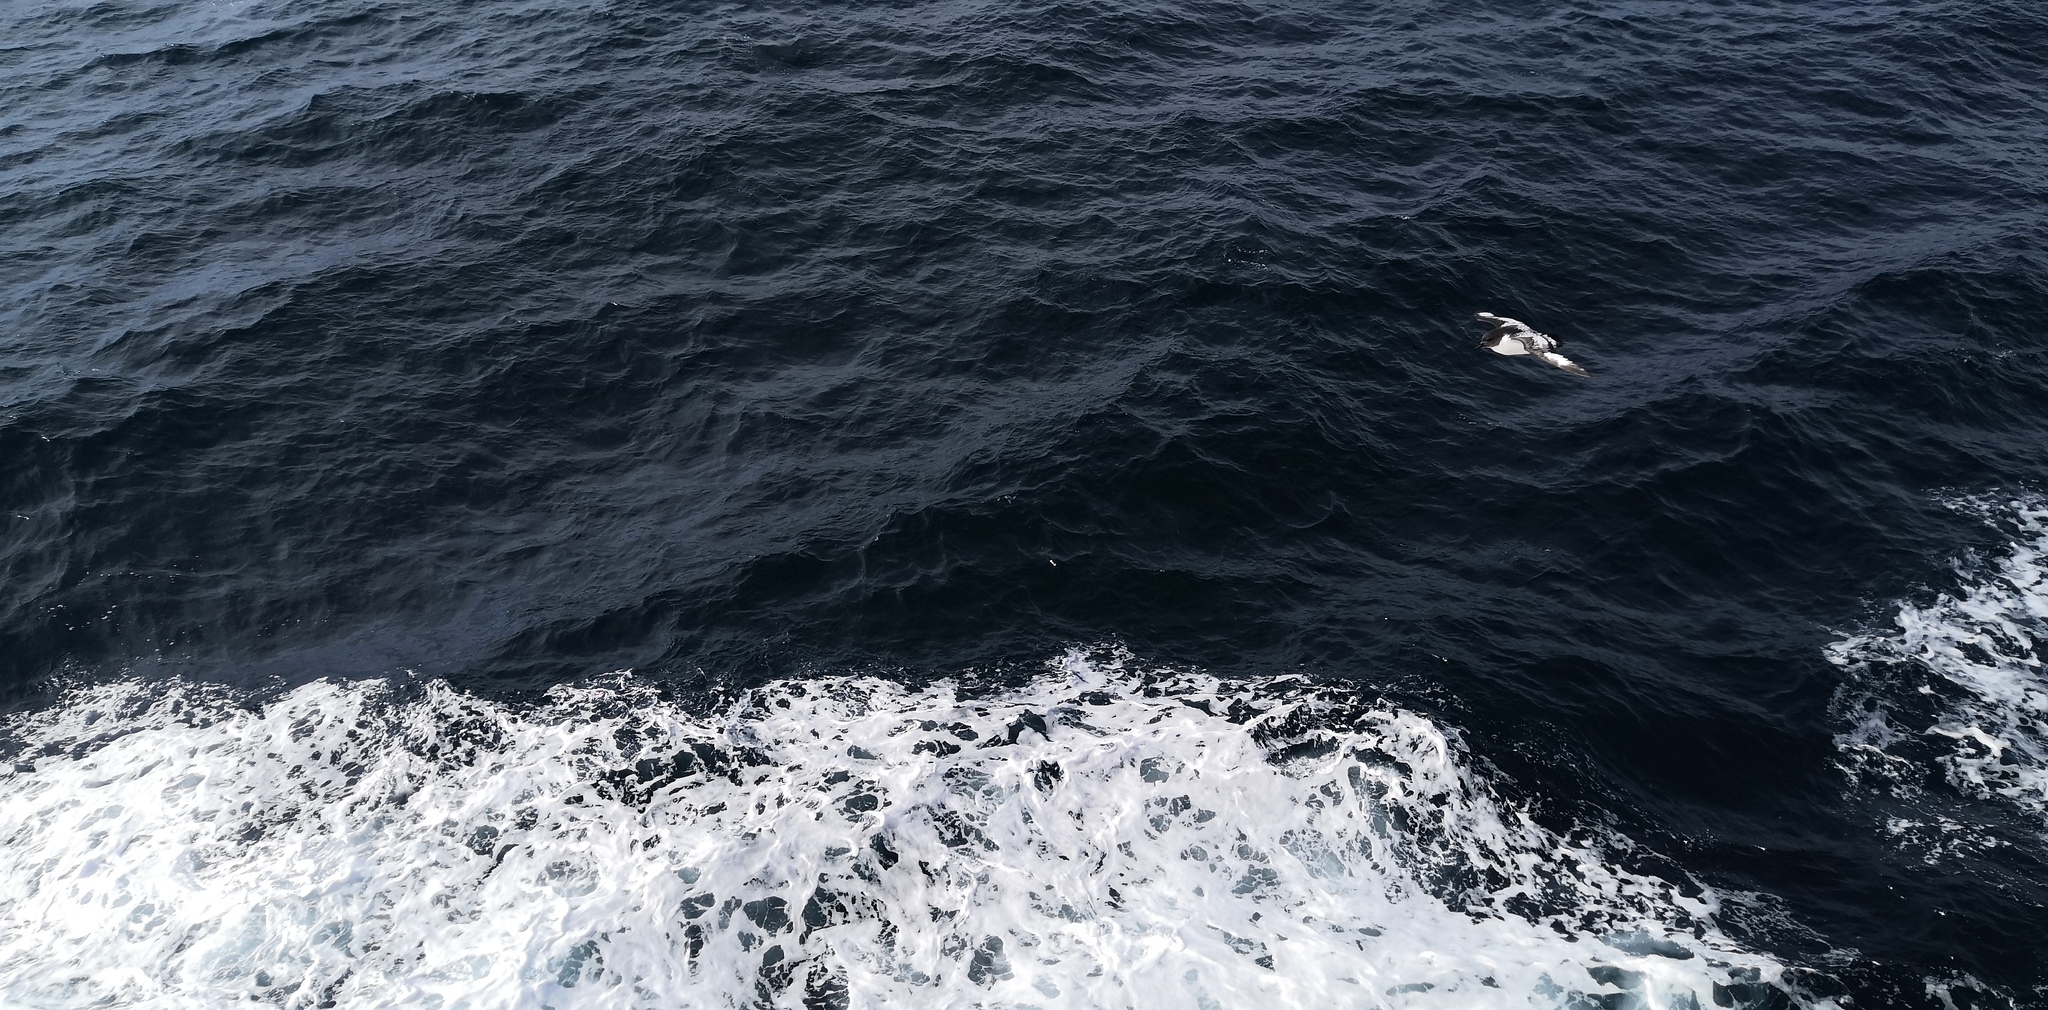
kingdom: Animalia
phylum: Chordata
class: Aves
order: Procellariiformes
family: Procellariidae
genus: Daption
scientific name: Daption capense
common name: Cape petrel
